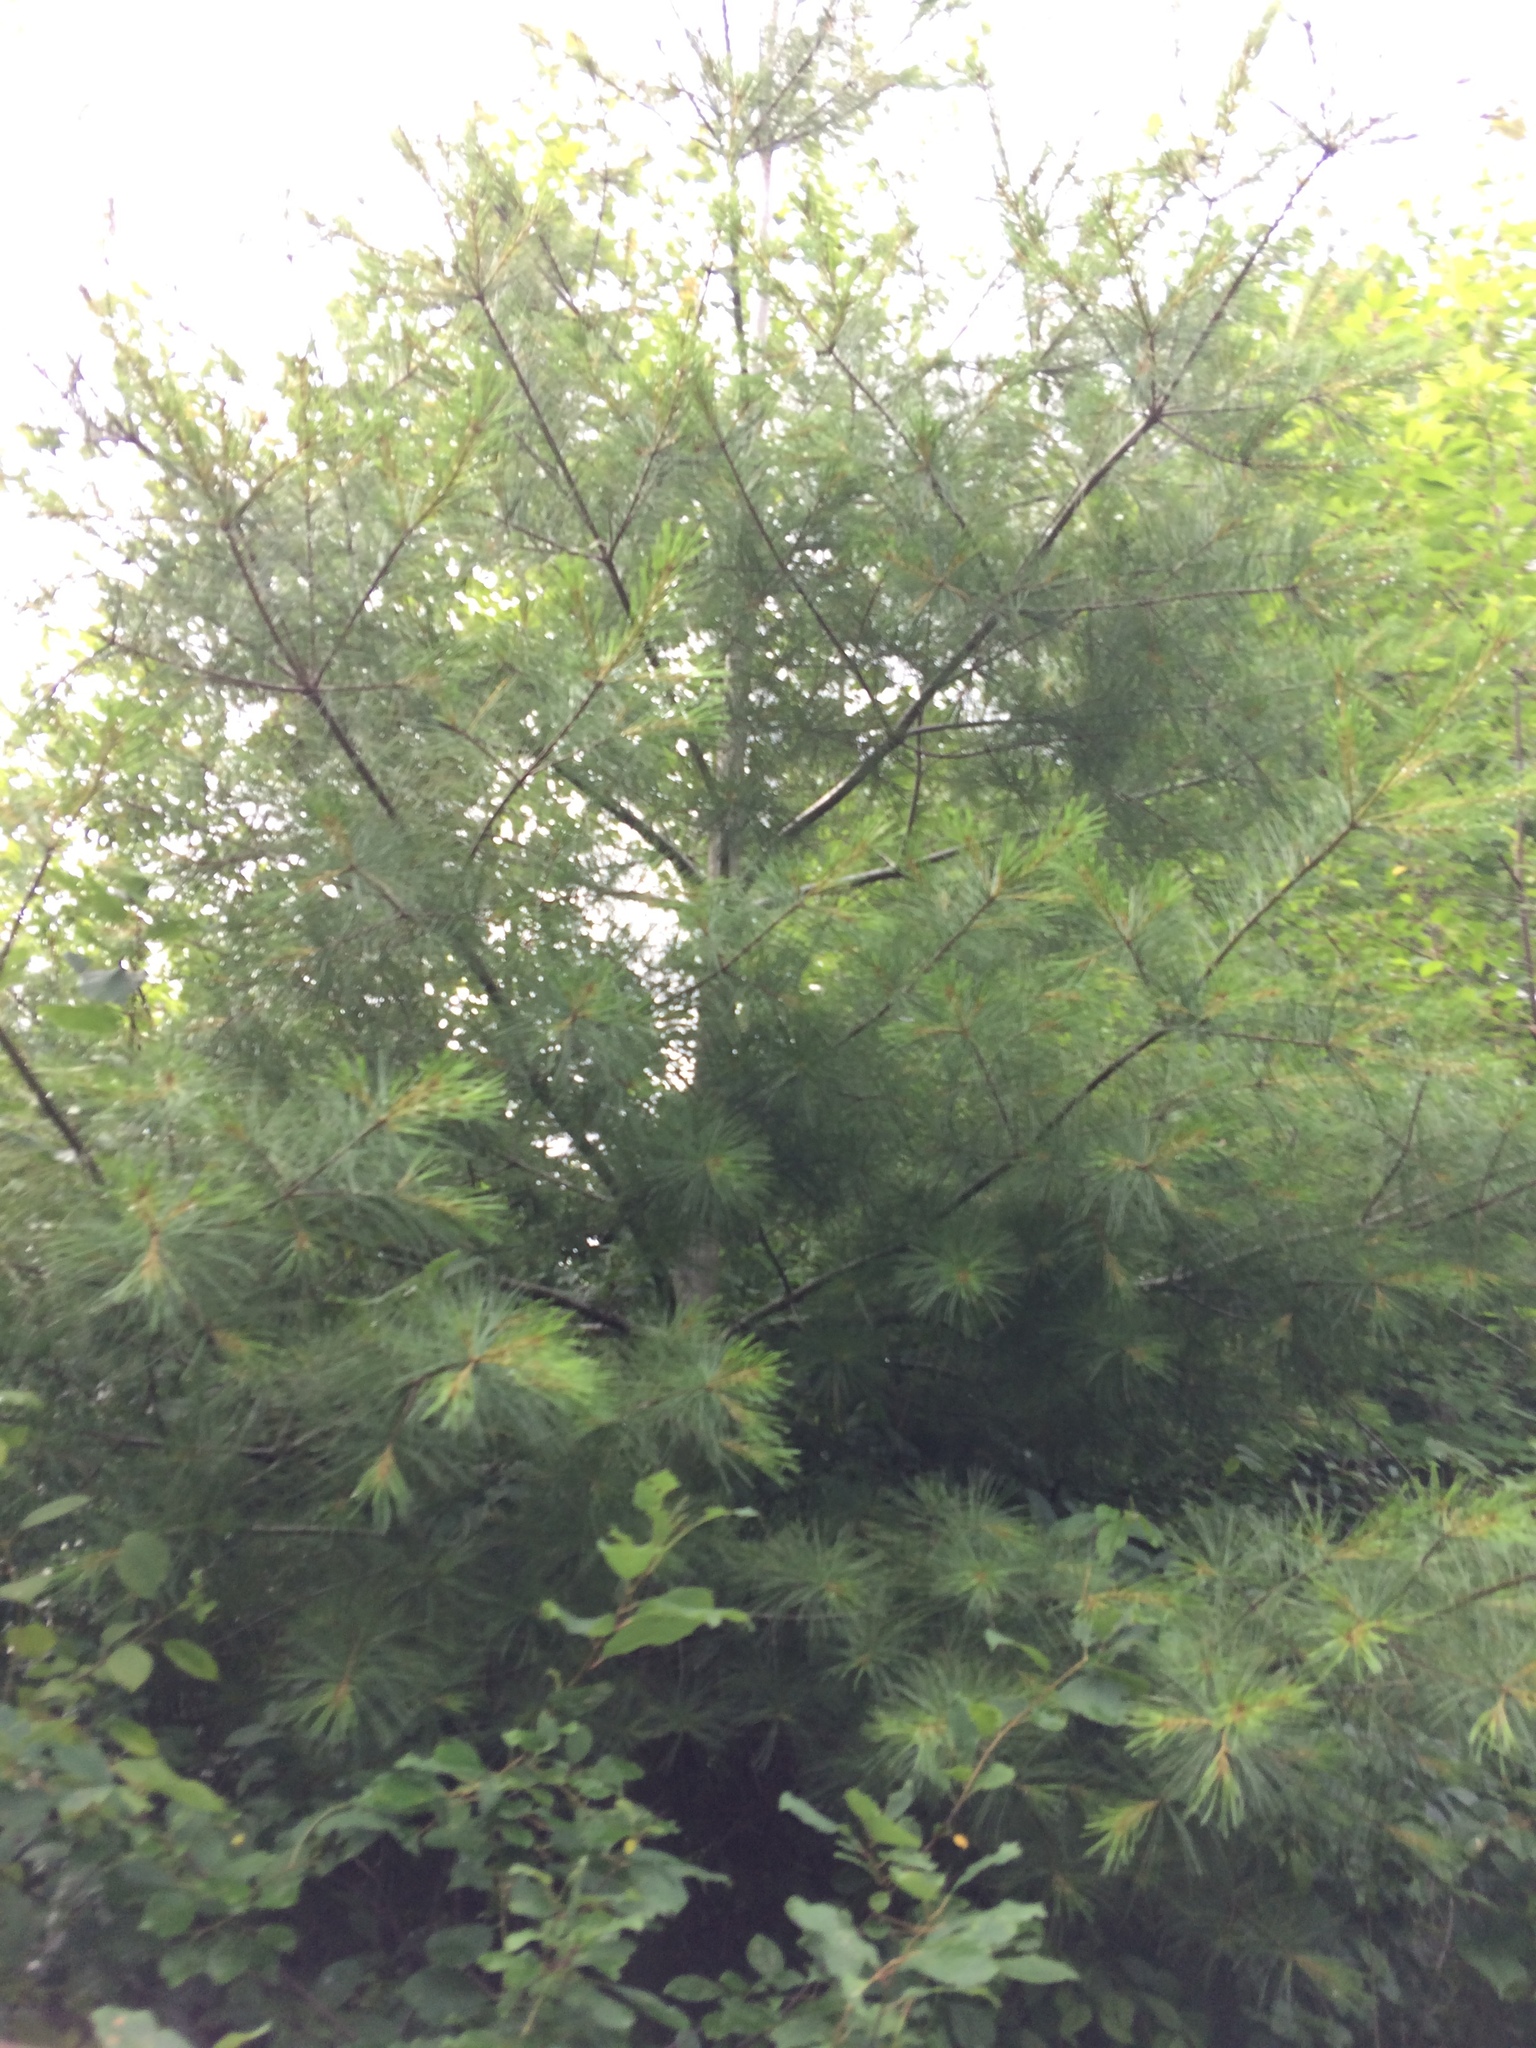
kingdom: Plantae
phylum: Tracheophyta
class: Pinopsida
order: Pinales
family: Pinaceae
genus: Pinus
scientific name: Pinus strobus
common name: Weymouth pine
